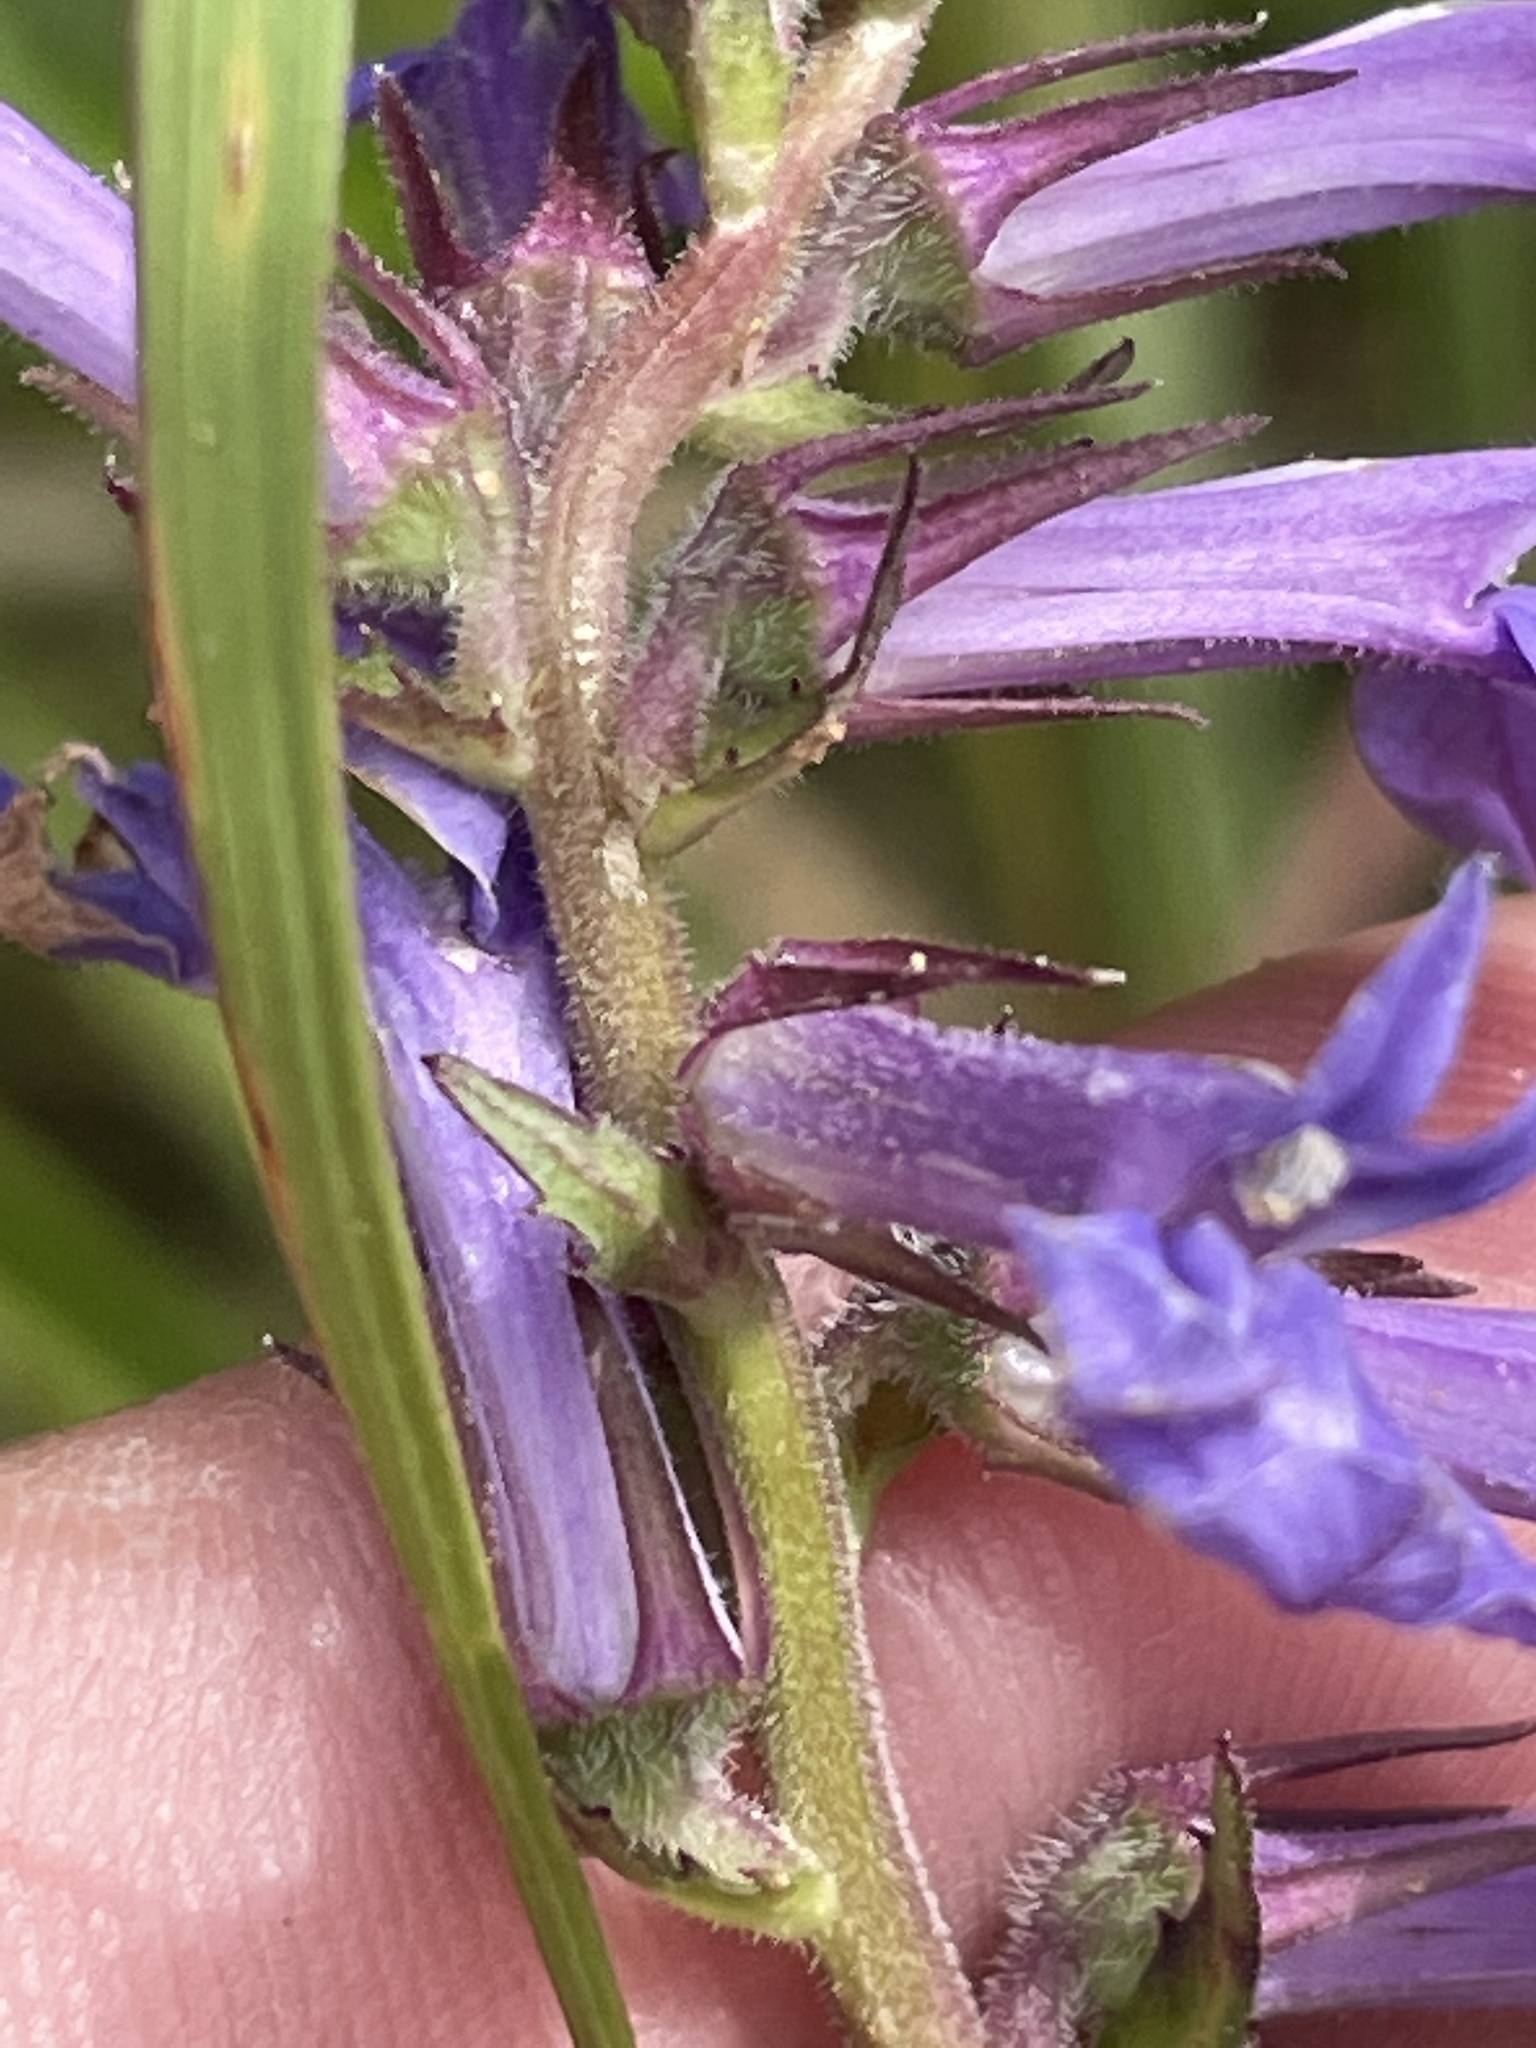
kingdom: Plantae
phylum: Tracheophyta
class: Magnoliopsida
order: Asterales
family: Campanulaceae
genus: Lobelia
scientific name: Lobelia puberula
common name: Purple dewdrop
